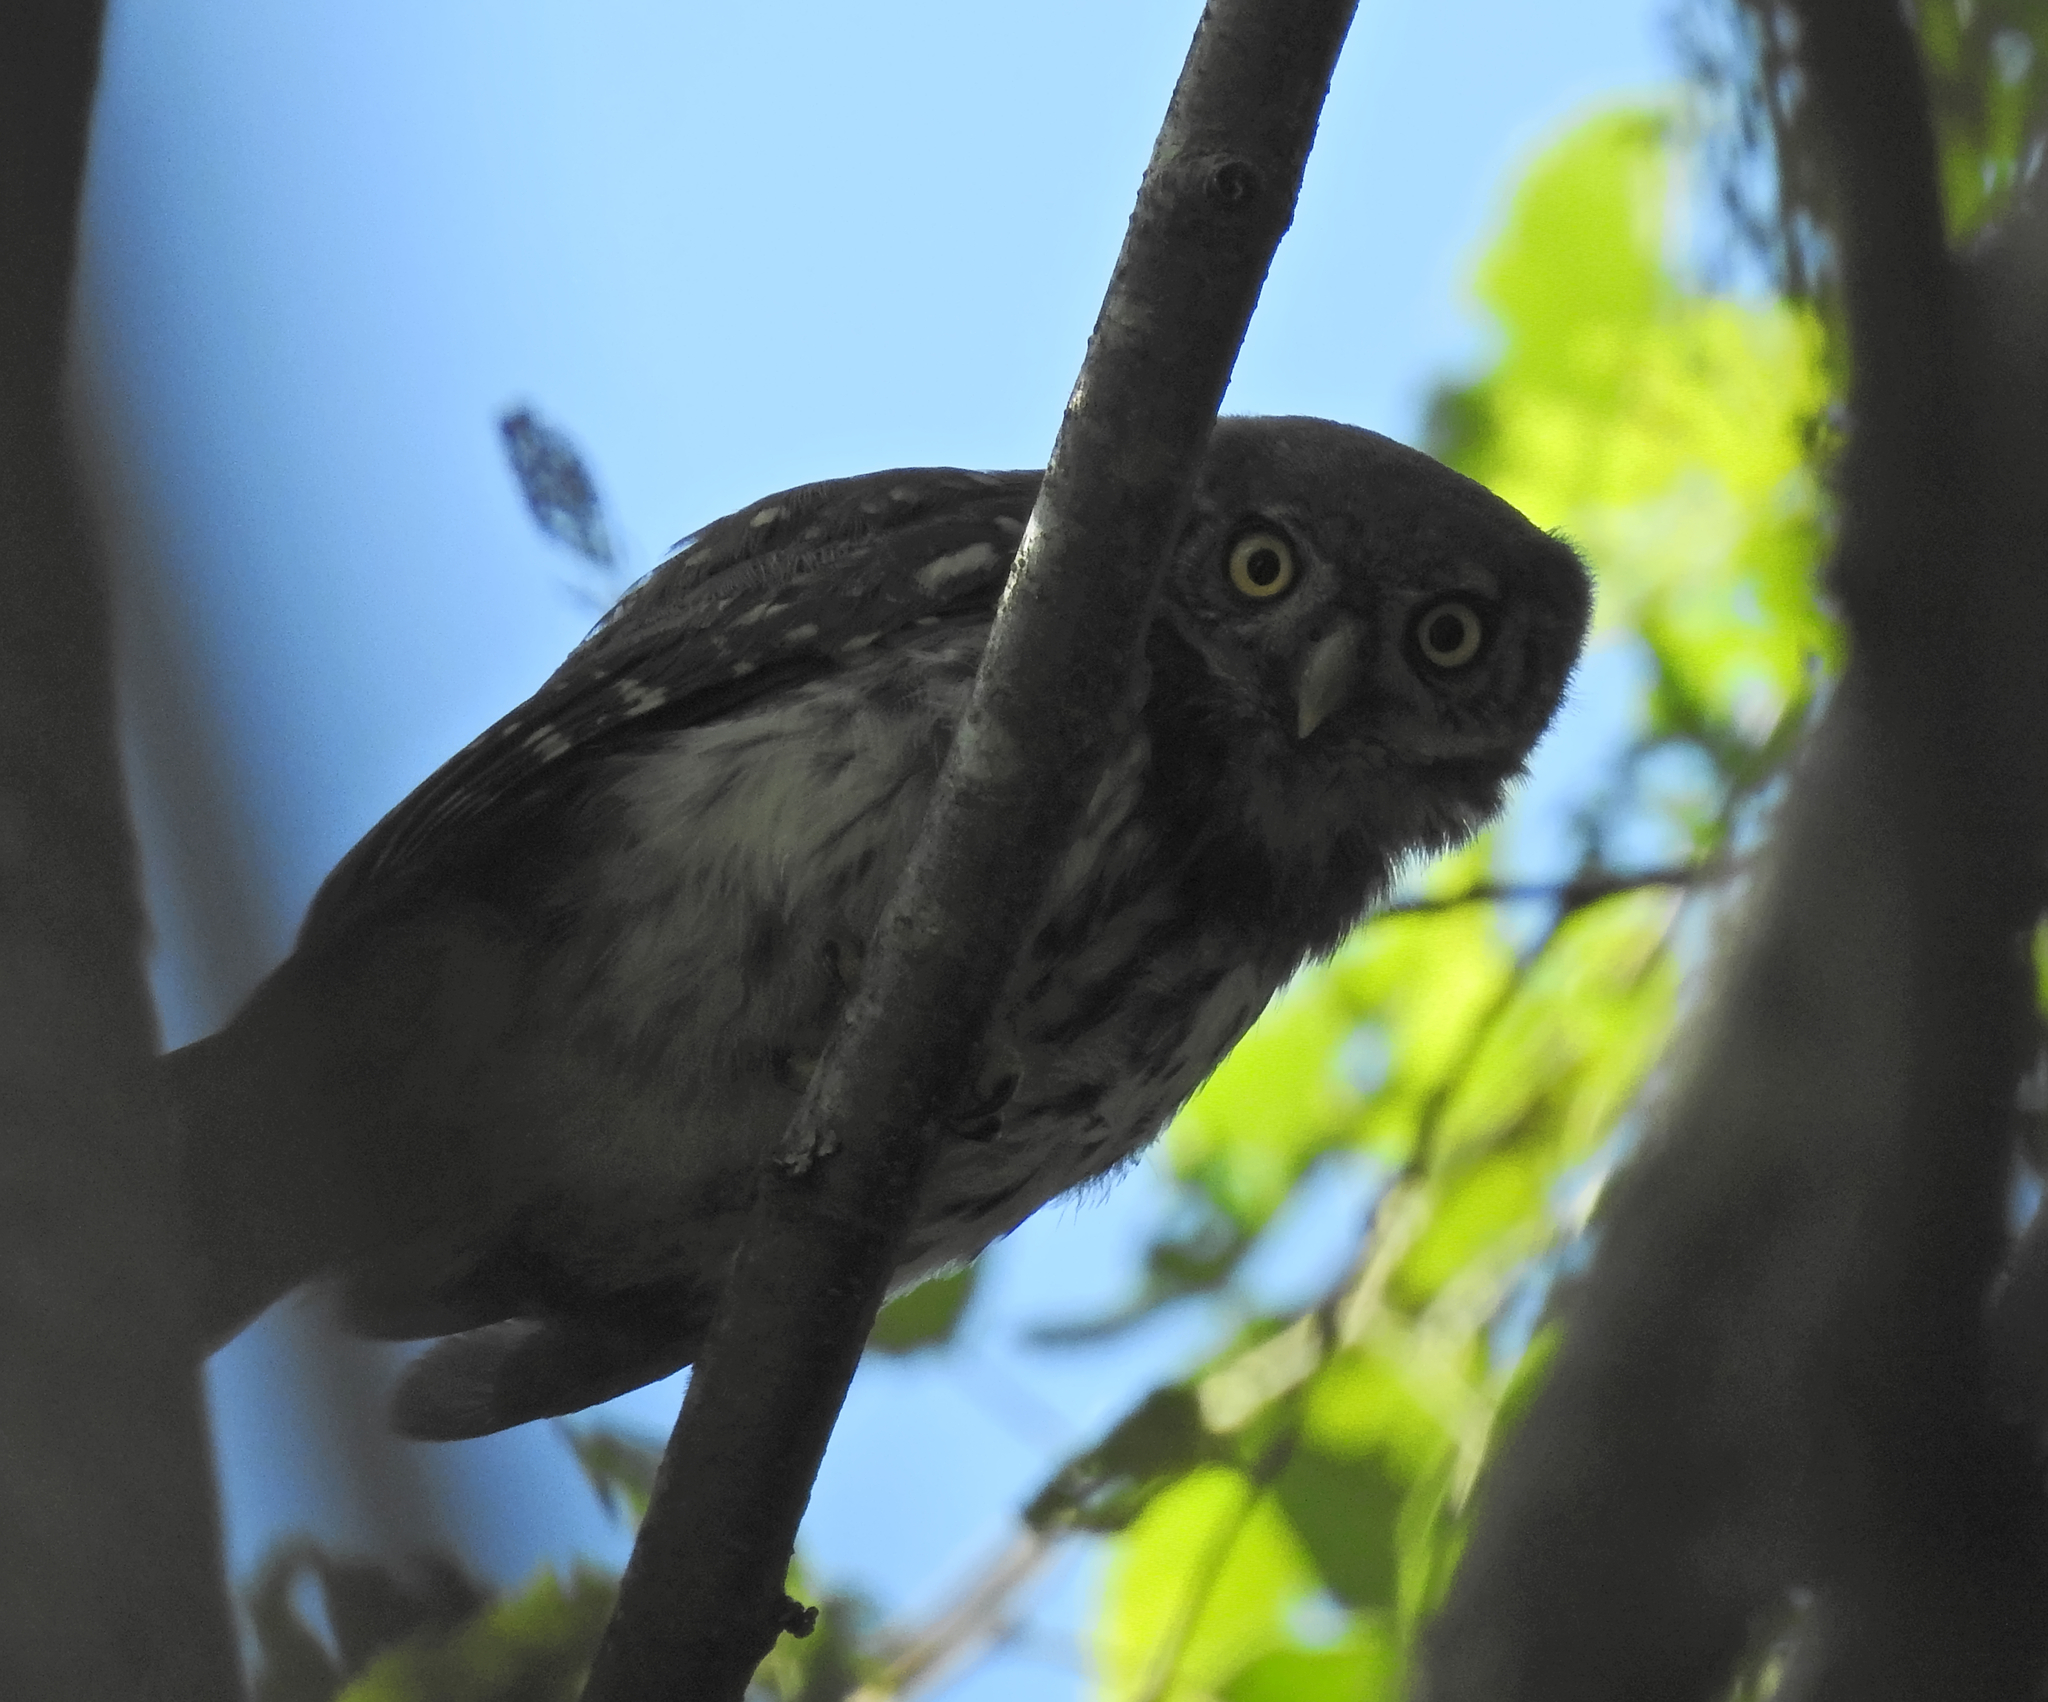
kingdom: Animalia
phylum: Chordata
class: Aves
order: Strigiformes
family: Strigidae
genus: Glaucidium
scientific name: Glaucidium passerinum
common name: Eurasian pygmy owl
